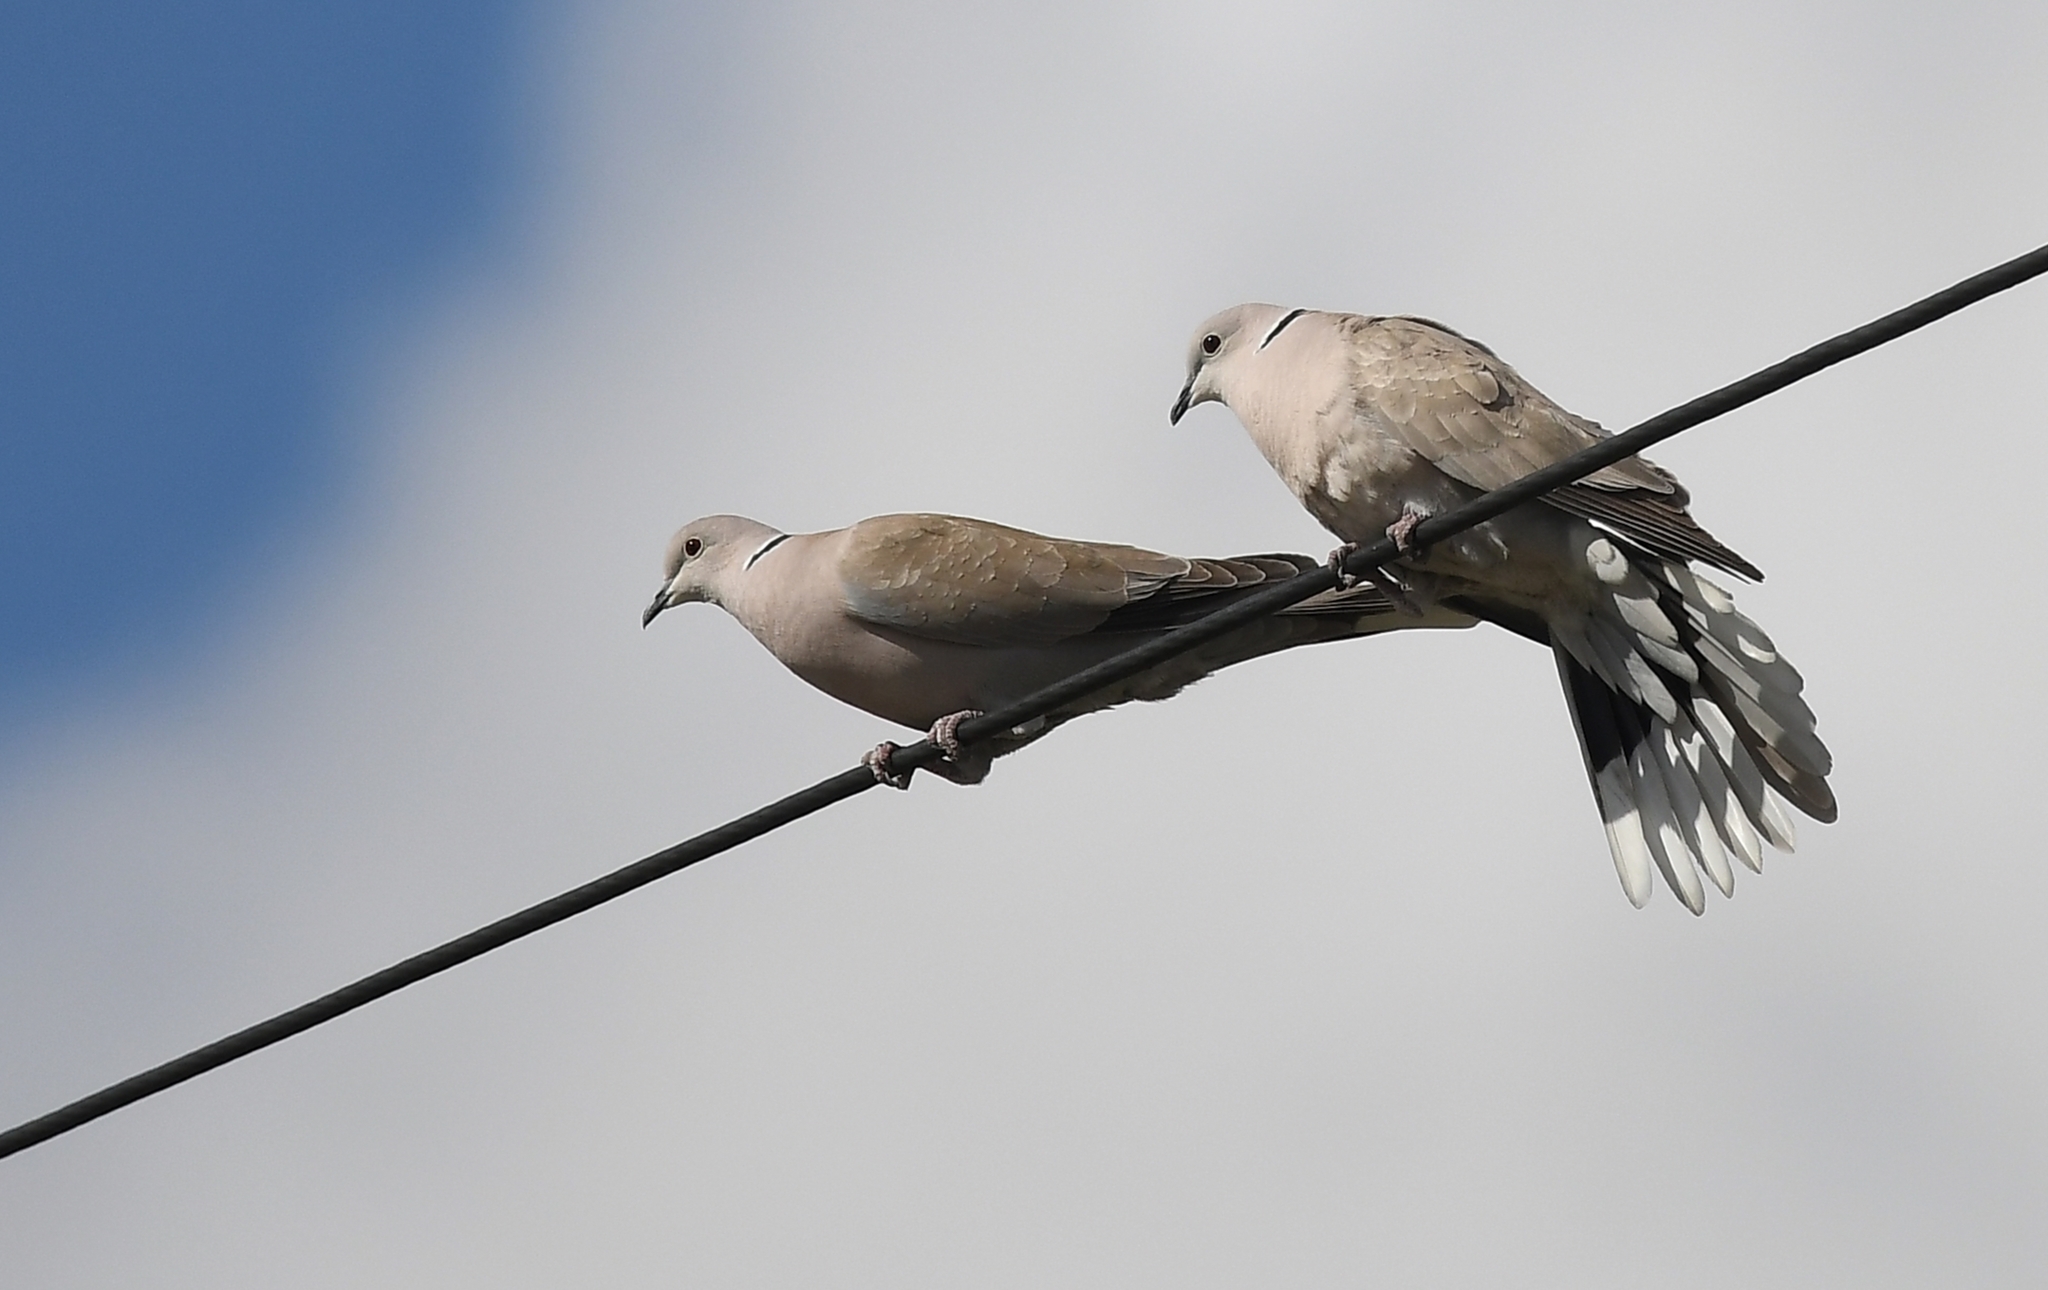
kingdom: Animalia
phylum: Chordata
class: Aves
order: Columbiformes
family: Columbidae
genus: Streptopelia
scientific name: Streptopelia decaocto
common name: Eurasian collared dove
